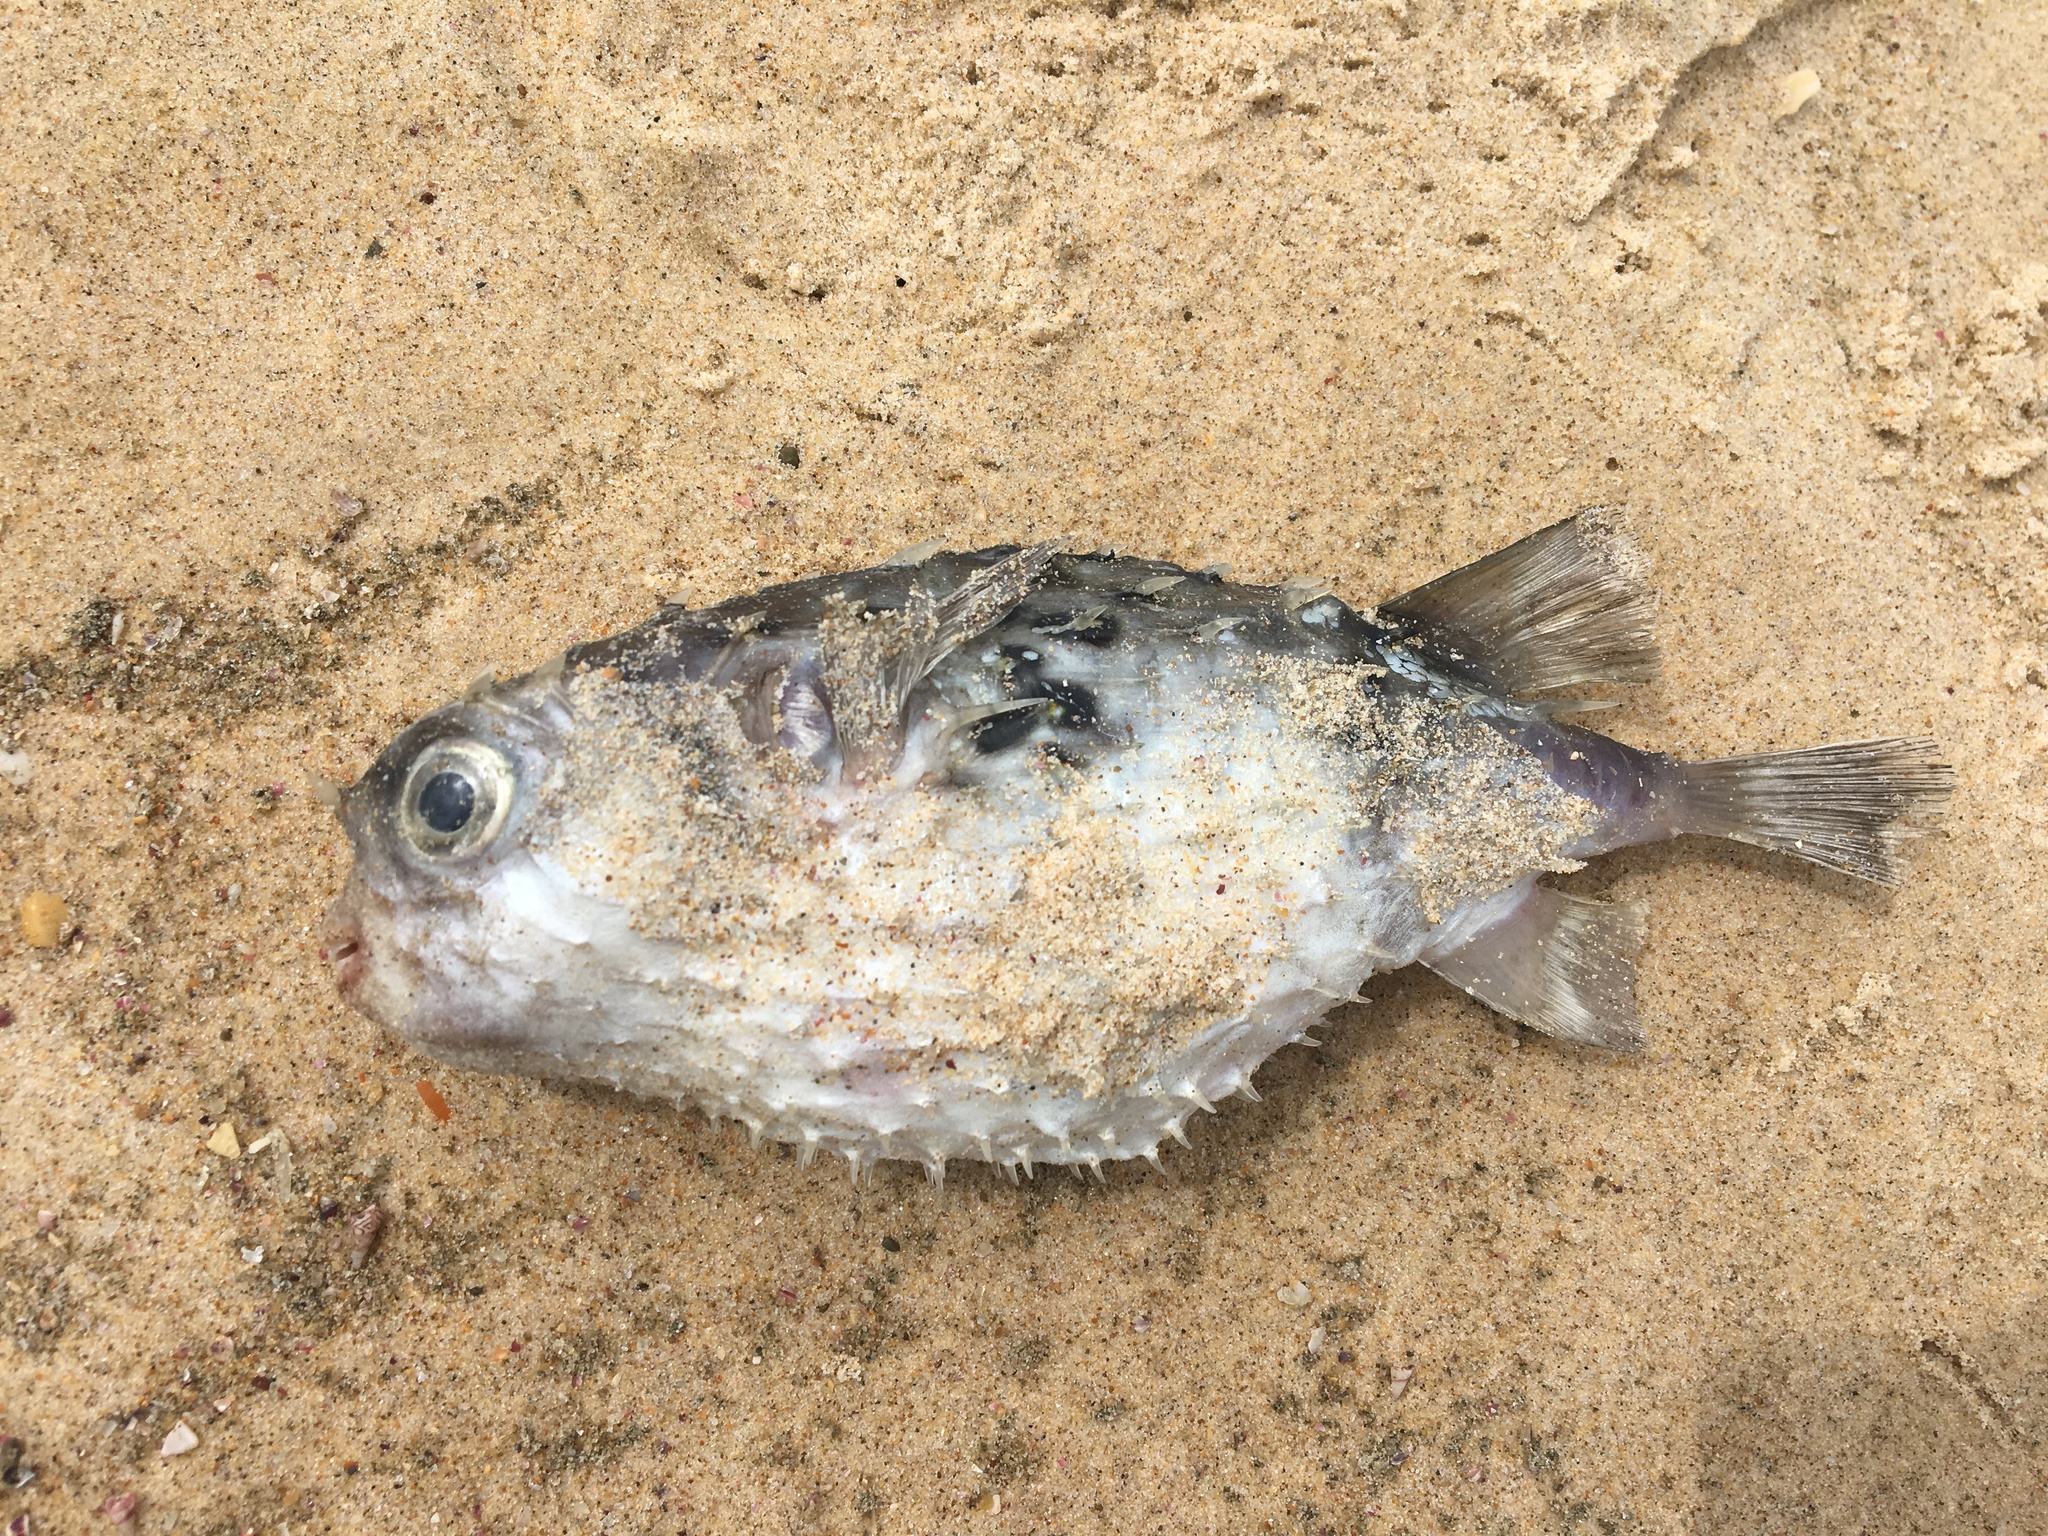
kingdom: Animalia
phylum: Chordata
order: Tetraodontiformes
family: Diodontidae
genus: Allomycterus
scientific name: Allomycterus pilatus
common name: No common name
